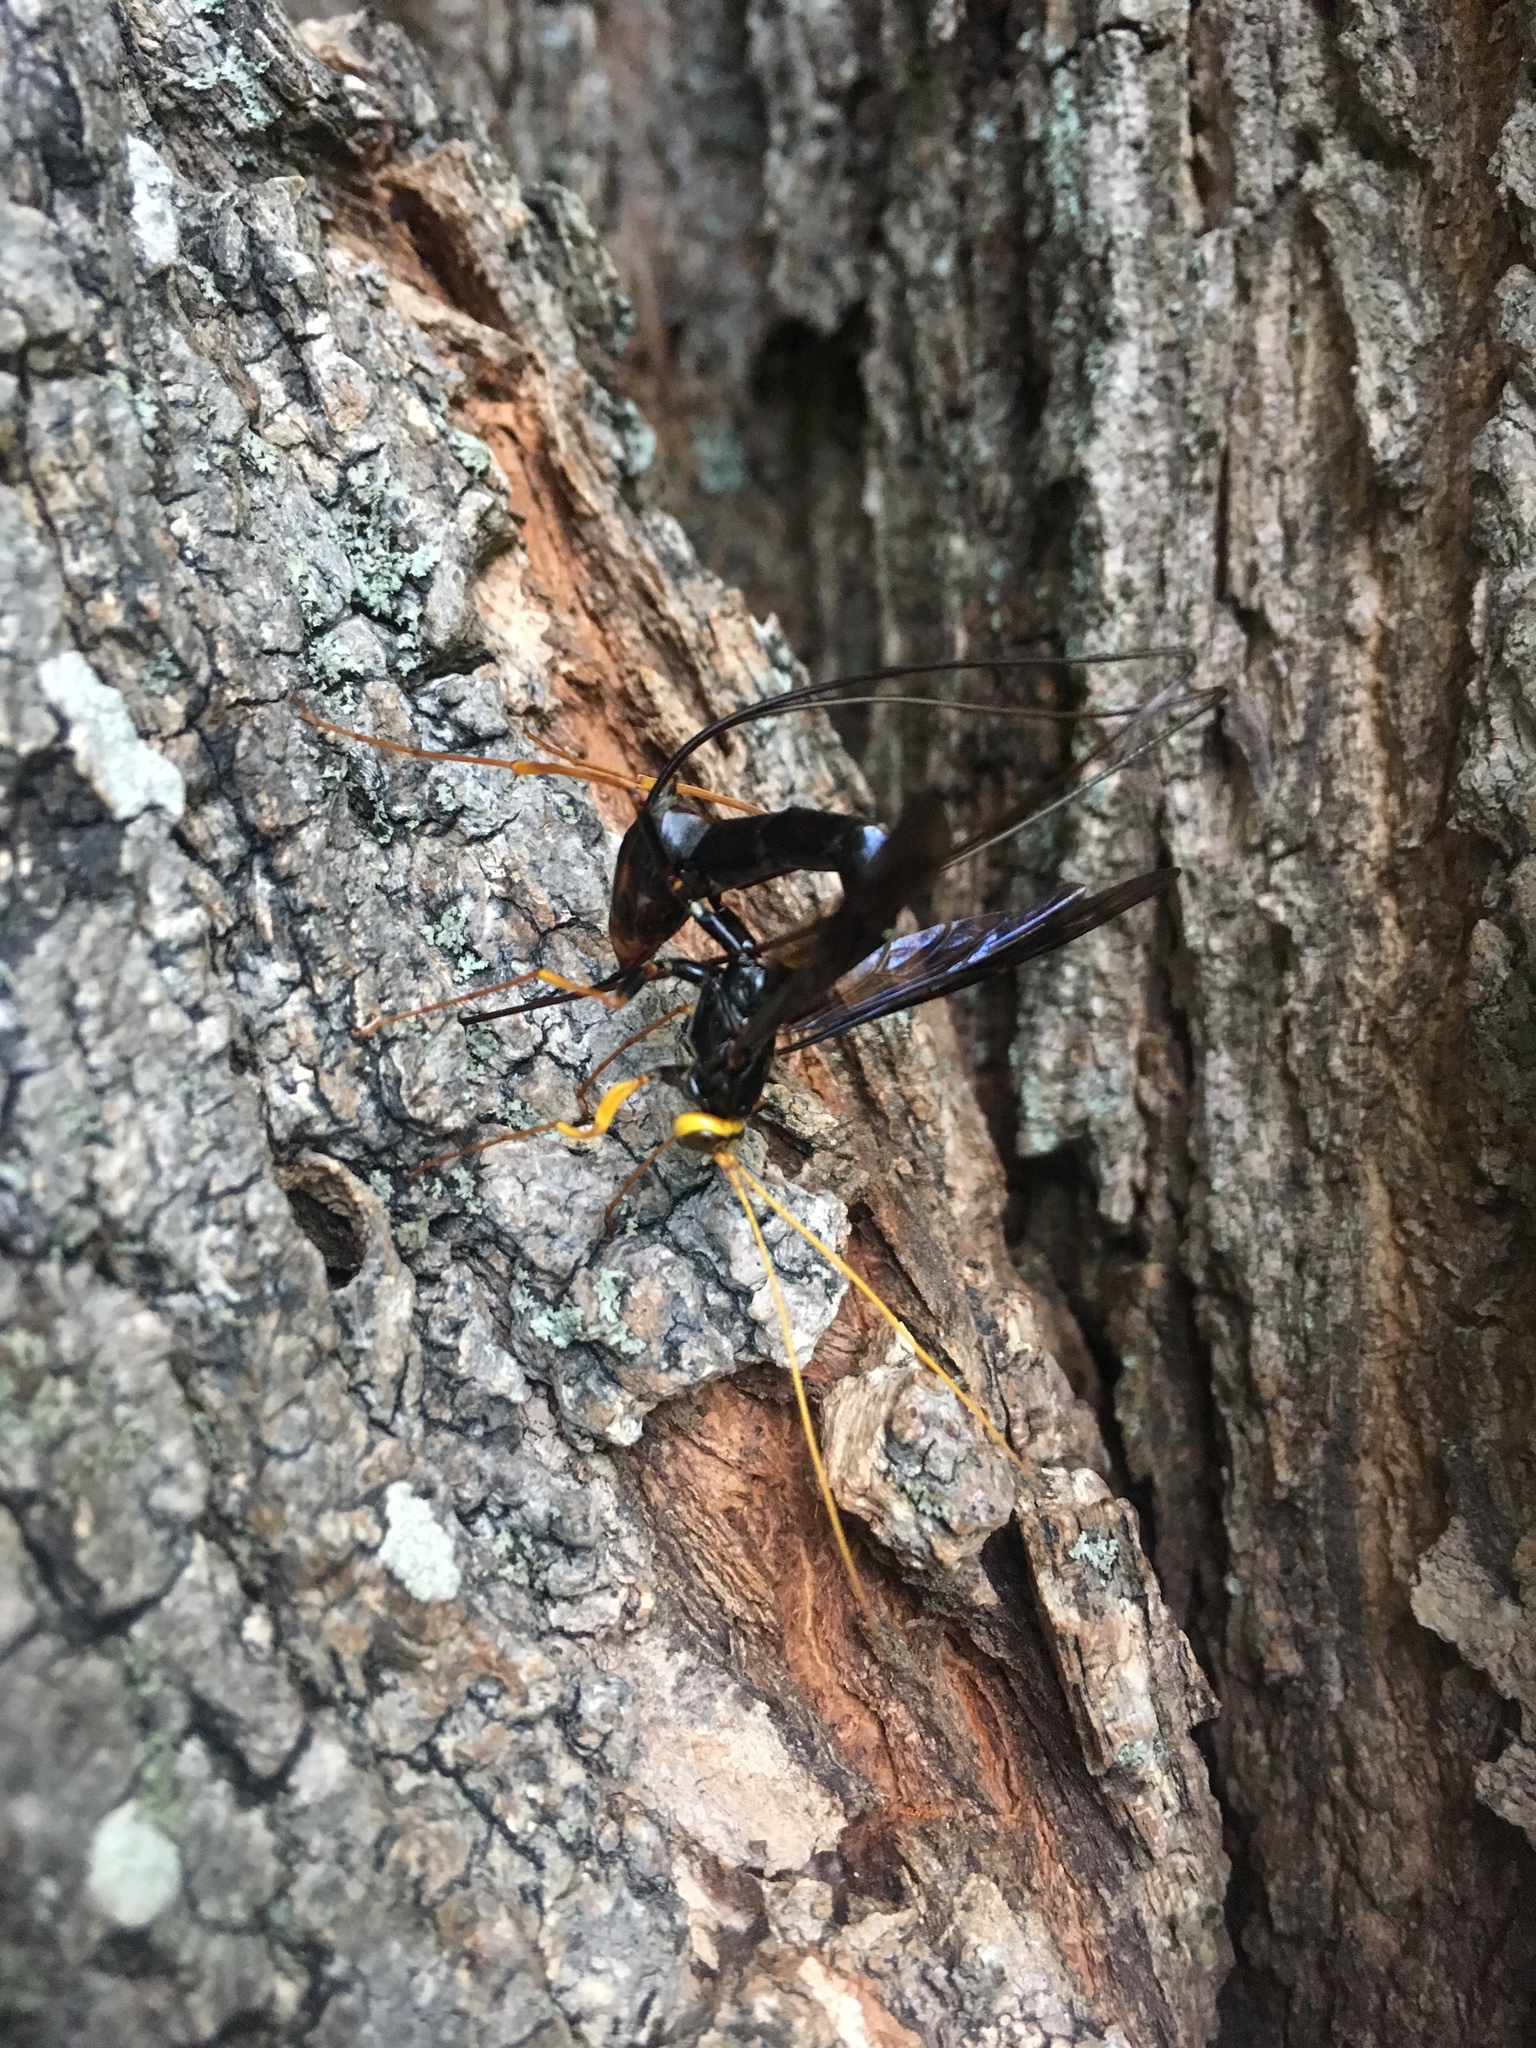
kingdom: Animalia
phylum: Arthropoda
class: Insecta
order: Hymenoptera
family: Ichneumonidae
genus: Megarhyssa
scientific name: Megarhyssa atrata
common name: Black giant ichneumonid wasp
